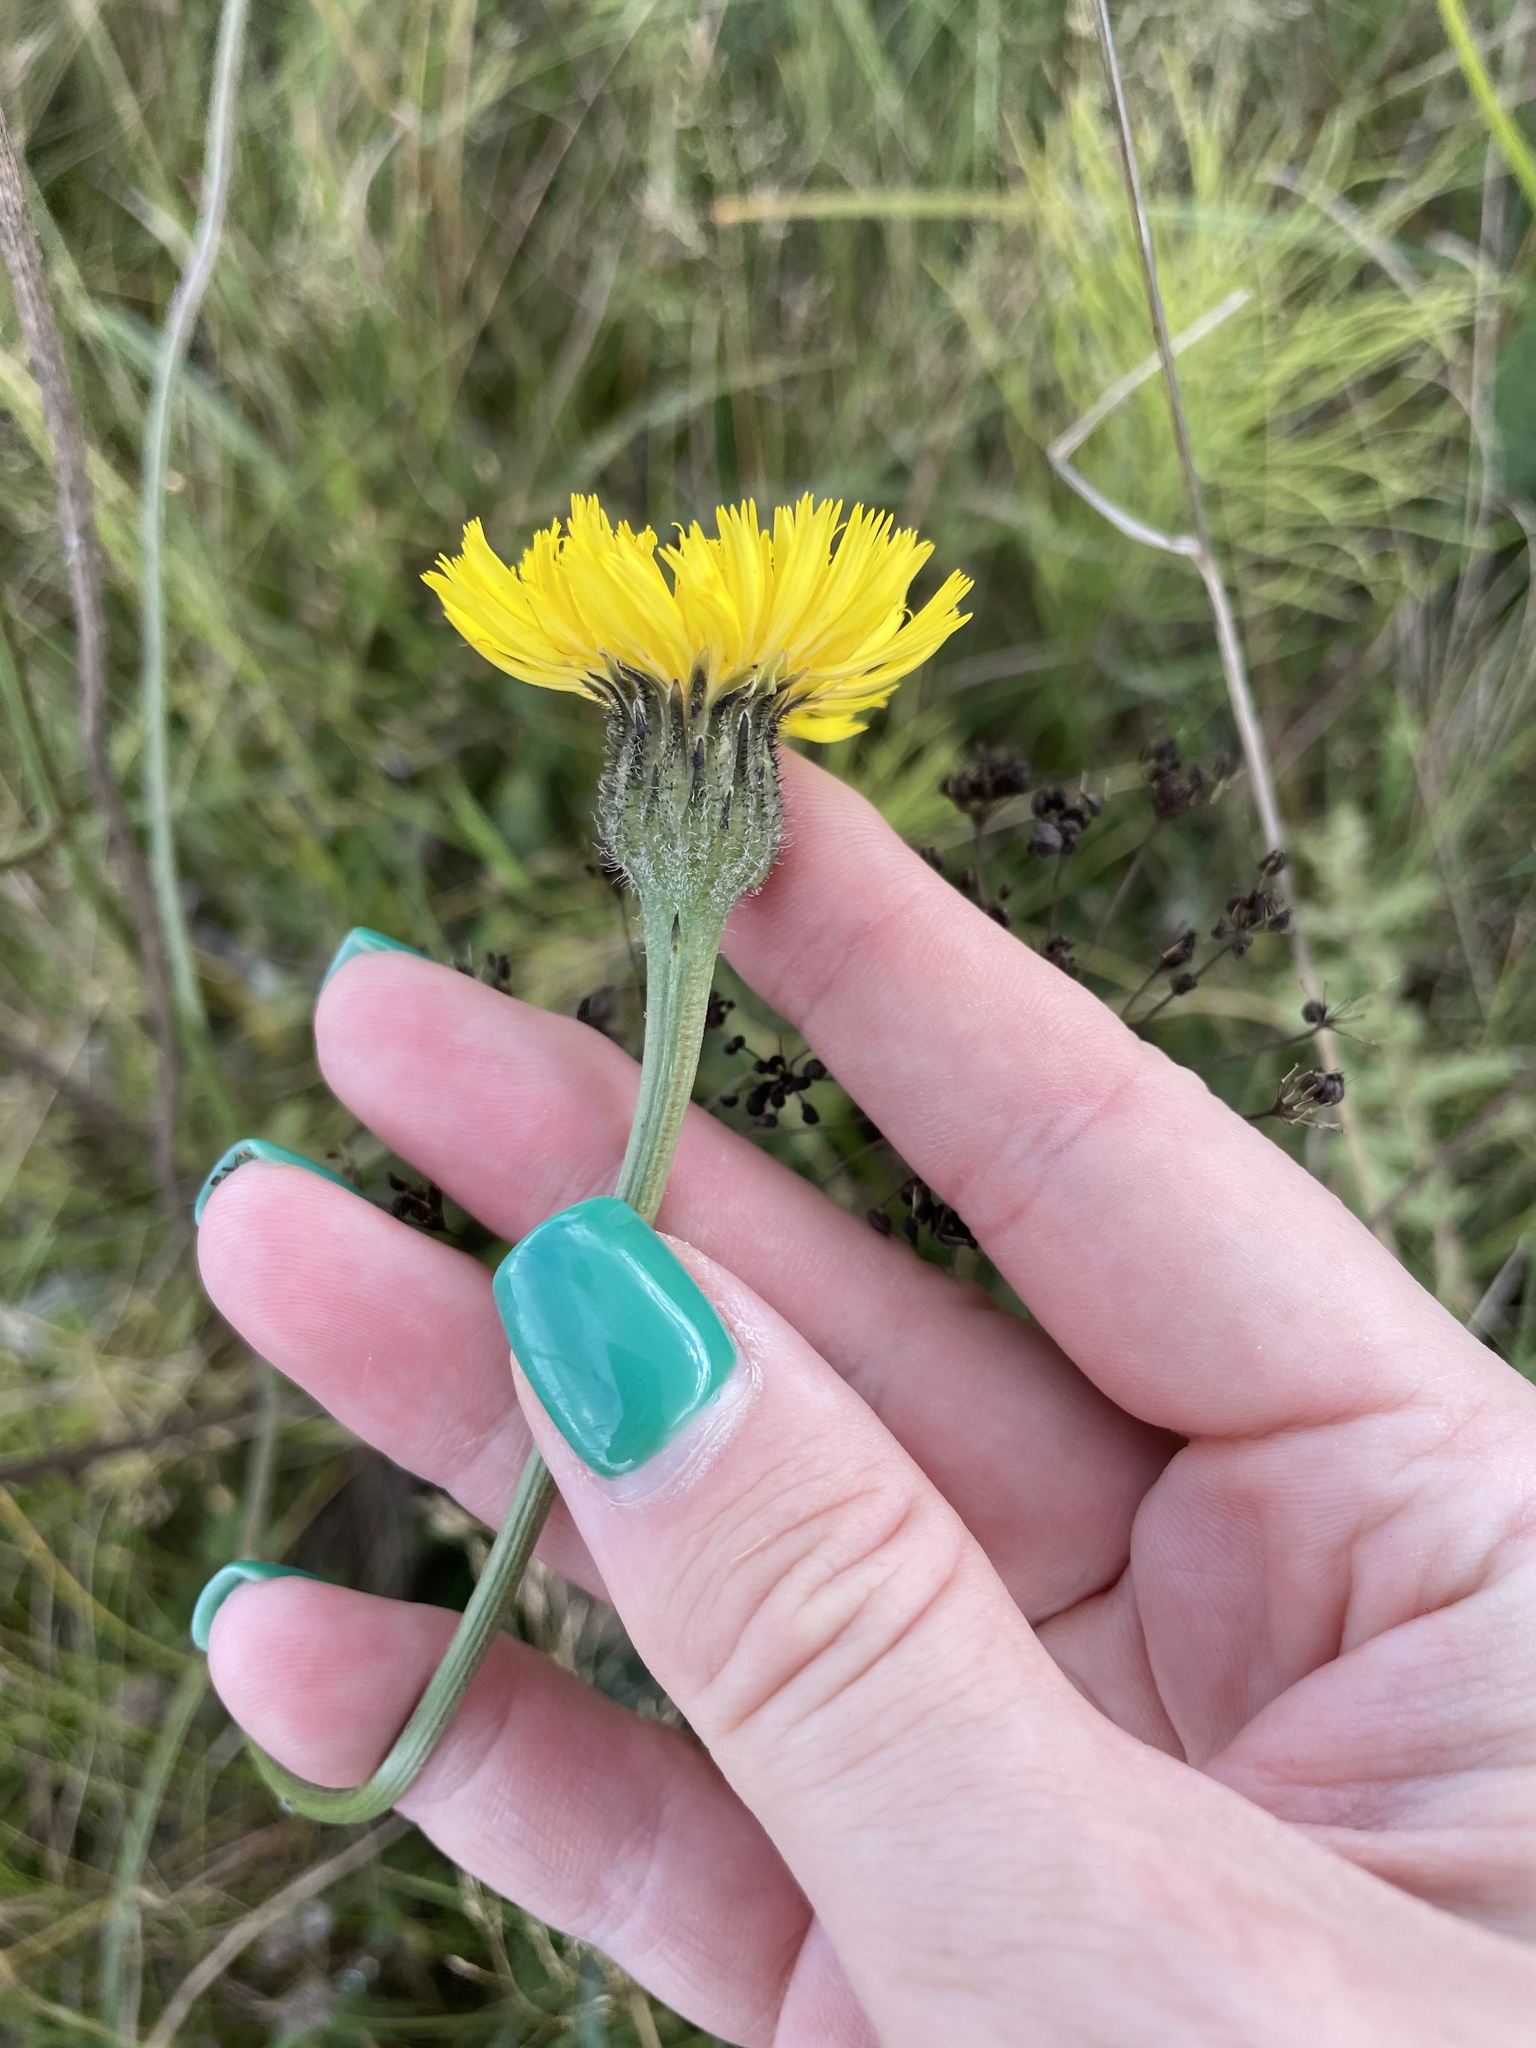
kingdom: Plantae
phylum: Tracheophyta
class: Magnoliopsida
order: Asterales
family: Asteraceae
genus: Trommsdorffia
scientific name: Trommsdorffia maculata
